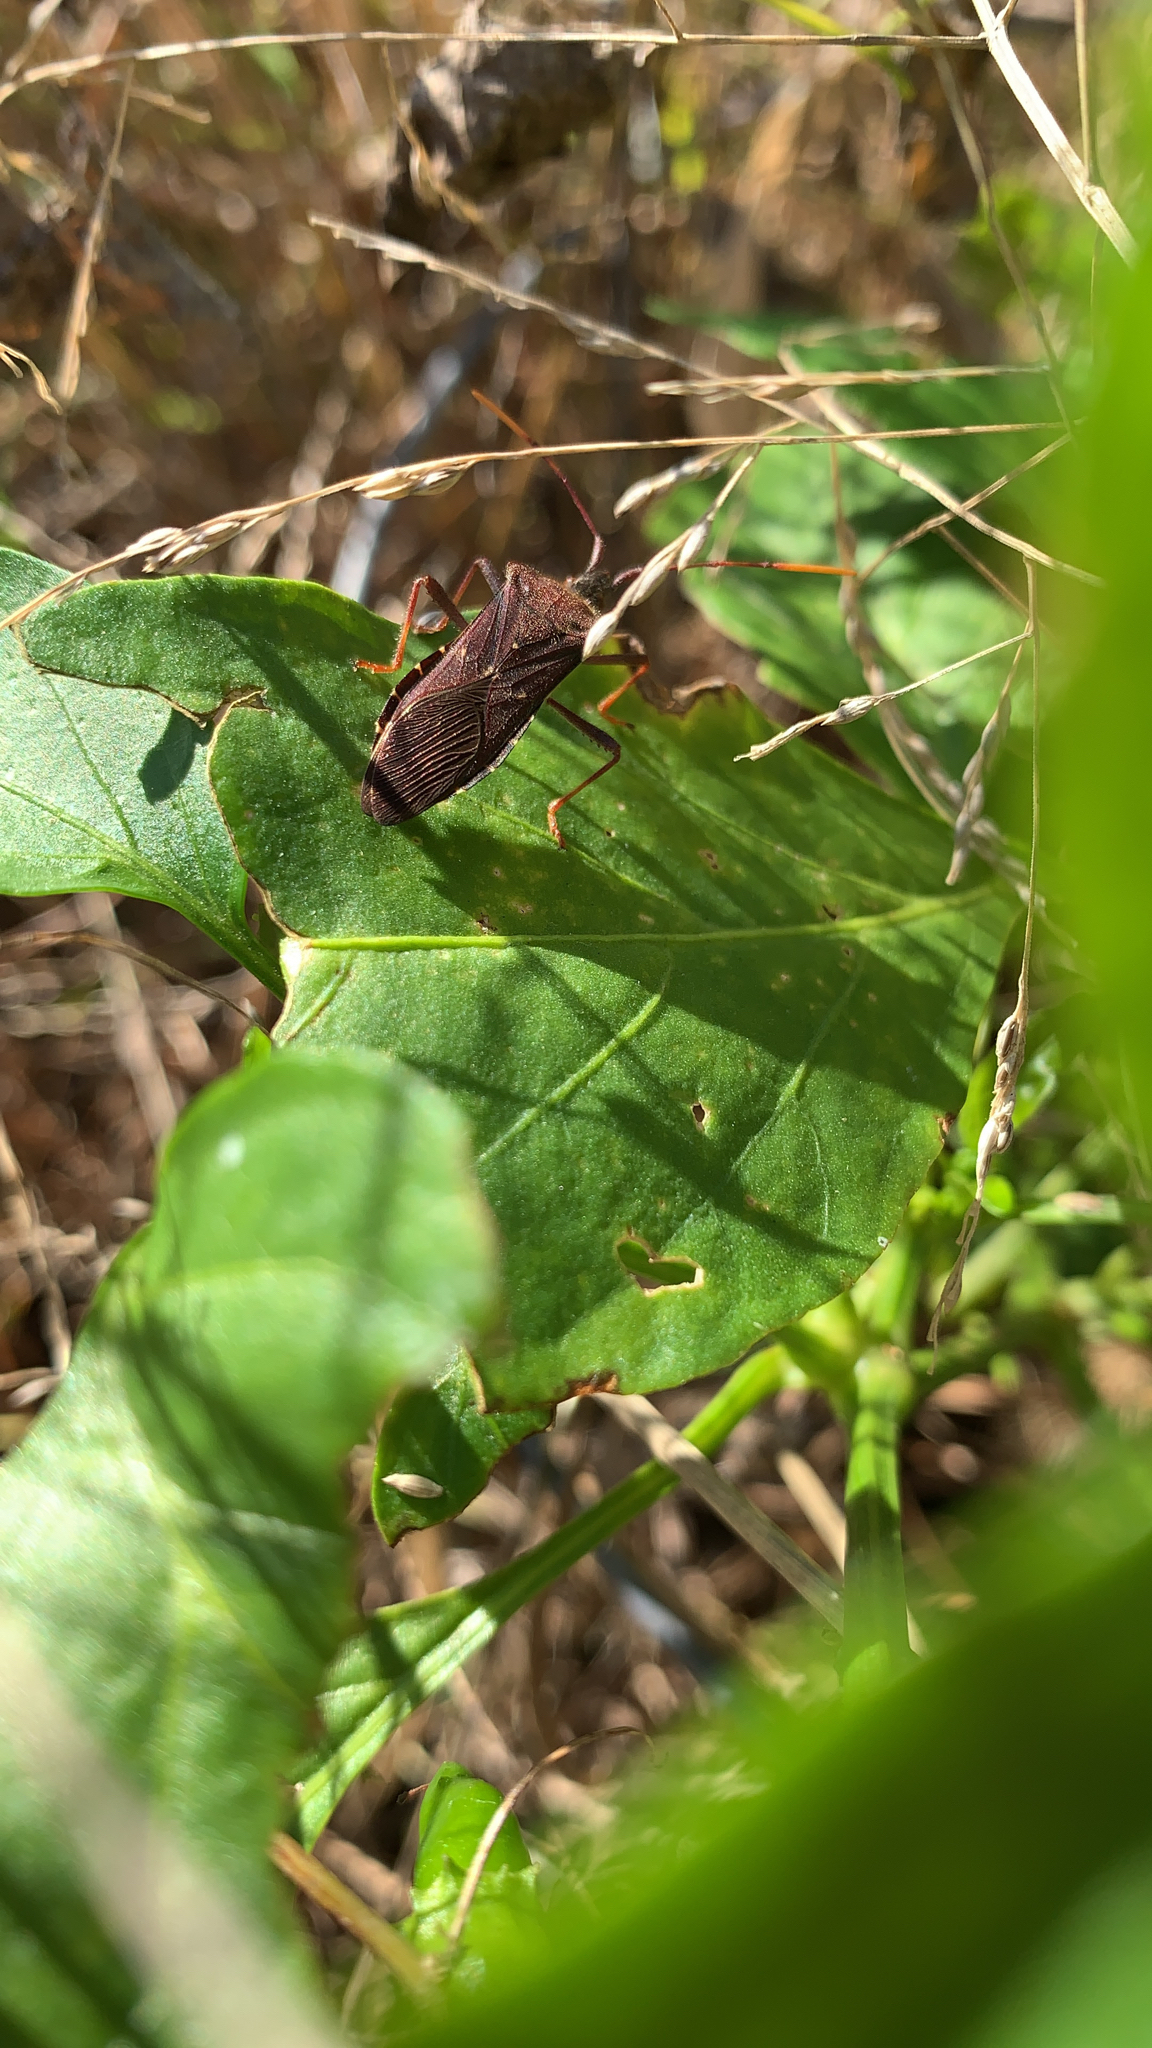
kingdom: Animalia
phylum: Arthropoda
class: Insecta
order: Hemiptera
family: Coreidae
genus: Leptoglossus
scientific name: Leptoglossus oppositus
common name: Northern leaf-footed bug
